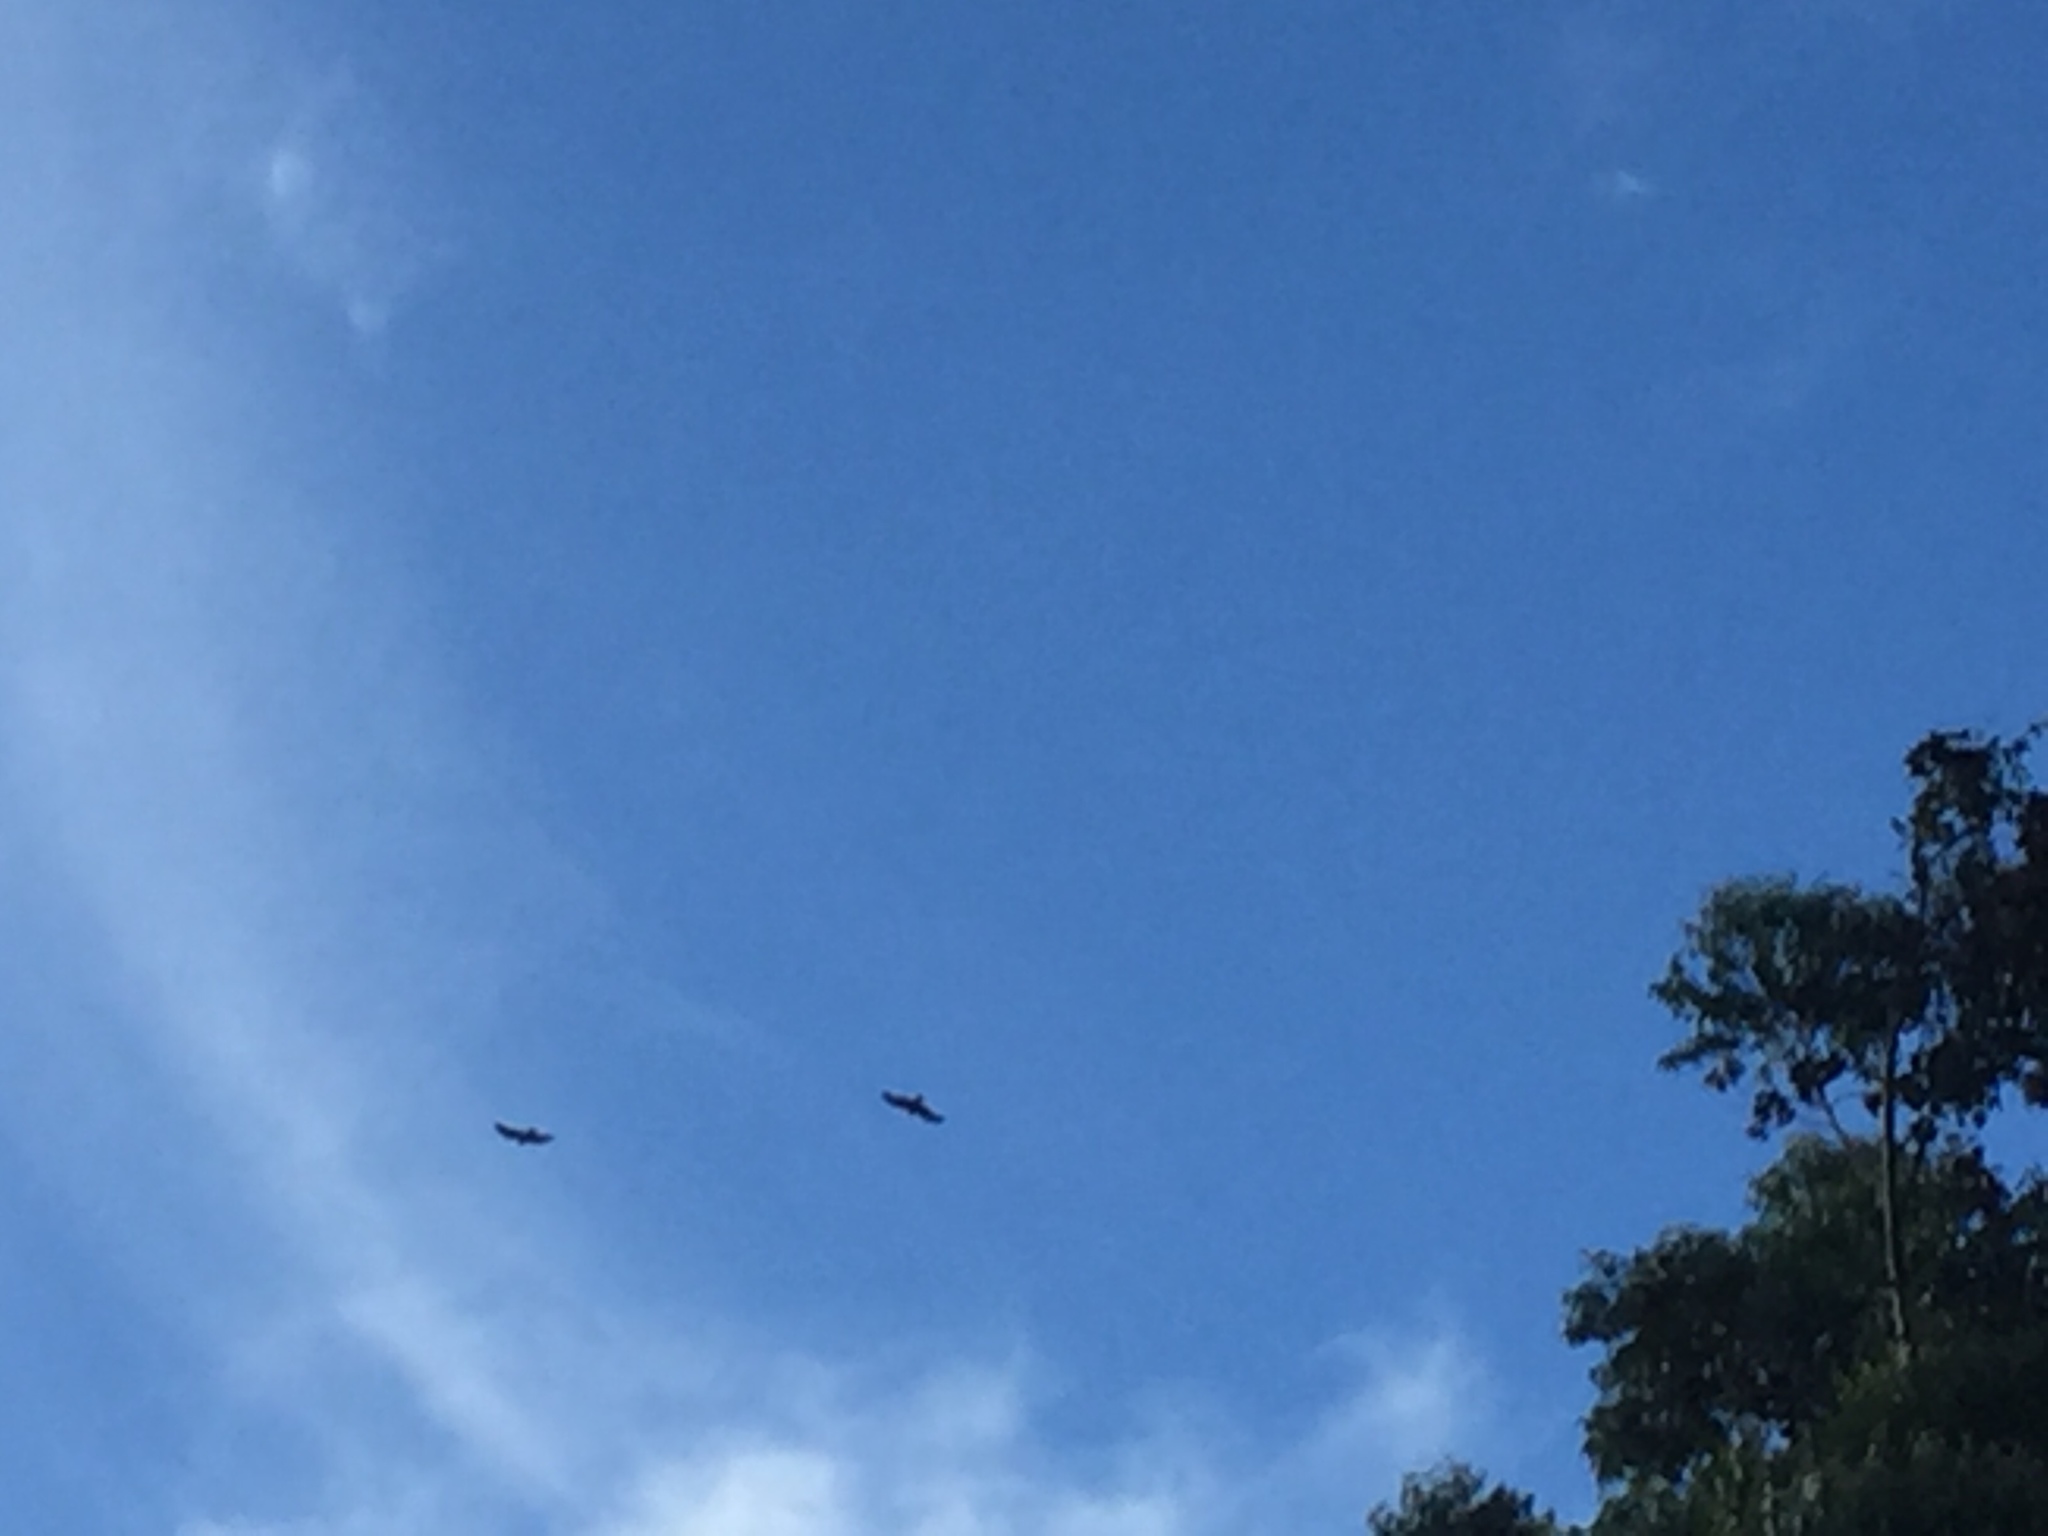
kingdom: Animalia
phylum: Chordata
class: Aves
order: Accipitriformes
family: Accipitridae
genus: Aquila
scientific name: Aquila verreauxii
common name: Verreaux's eagle
